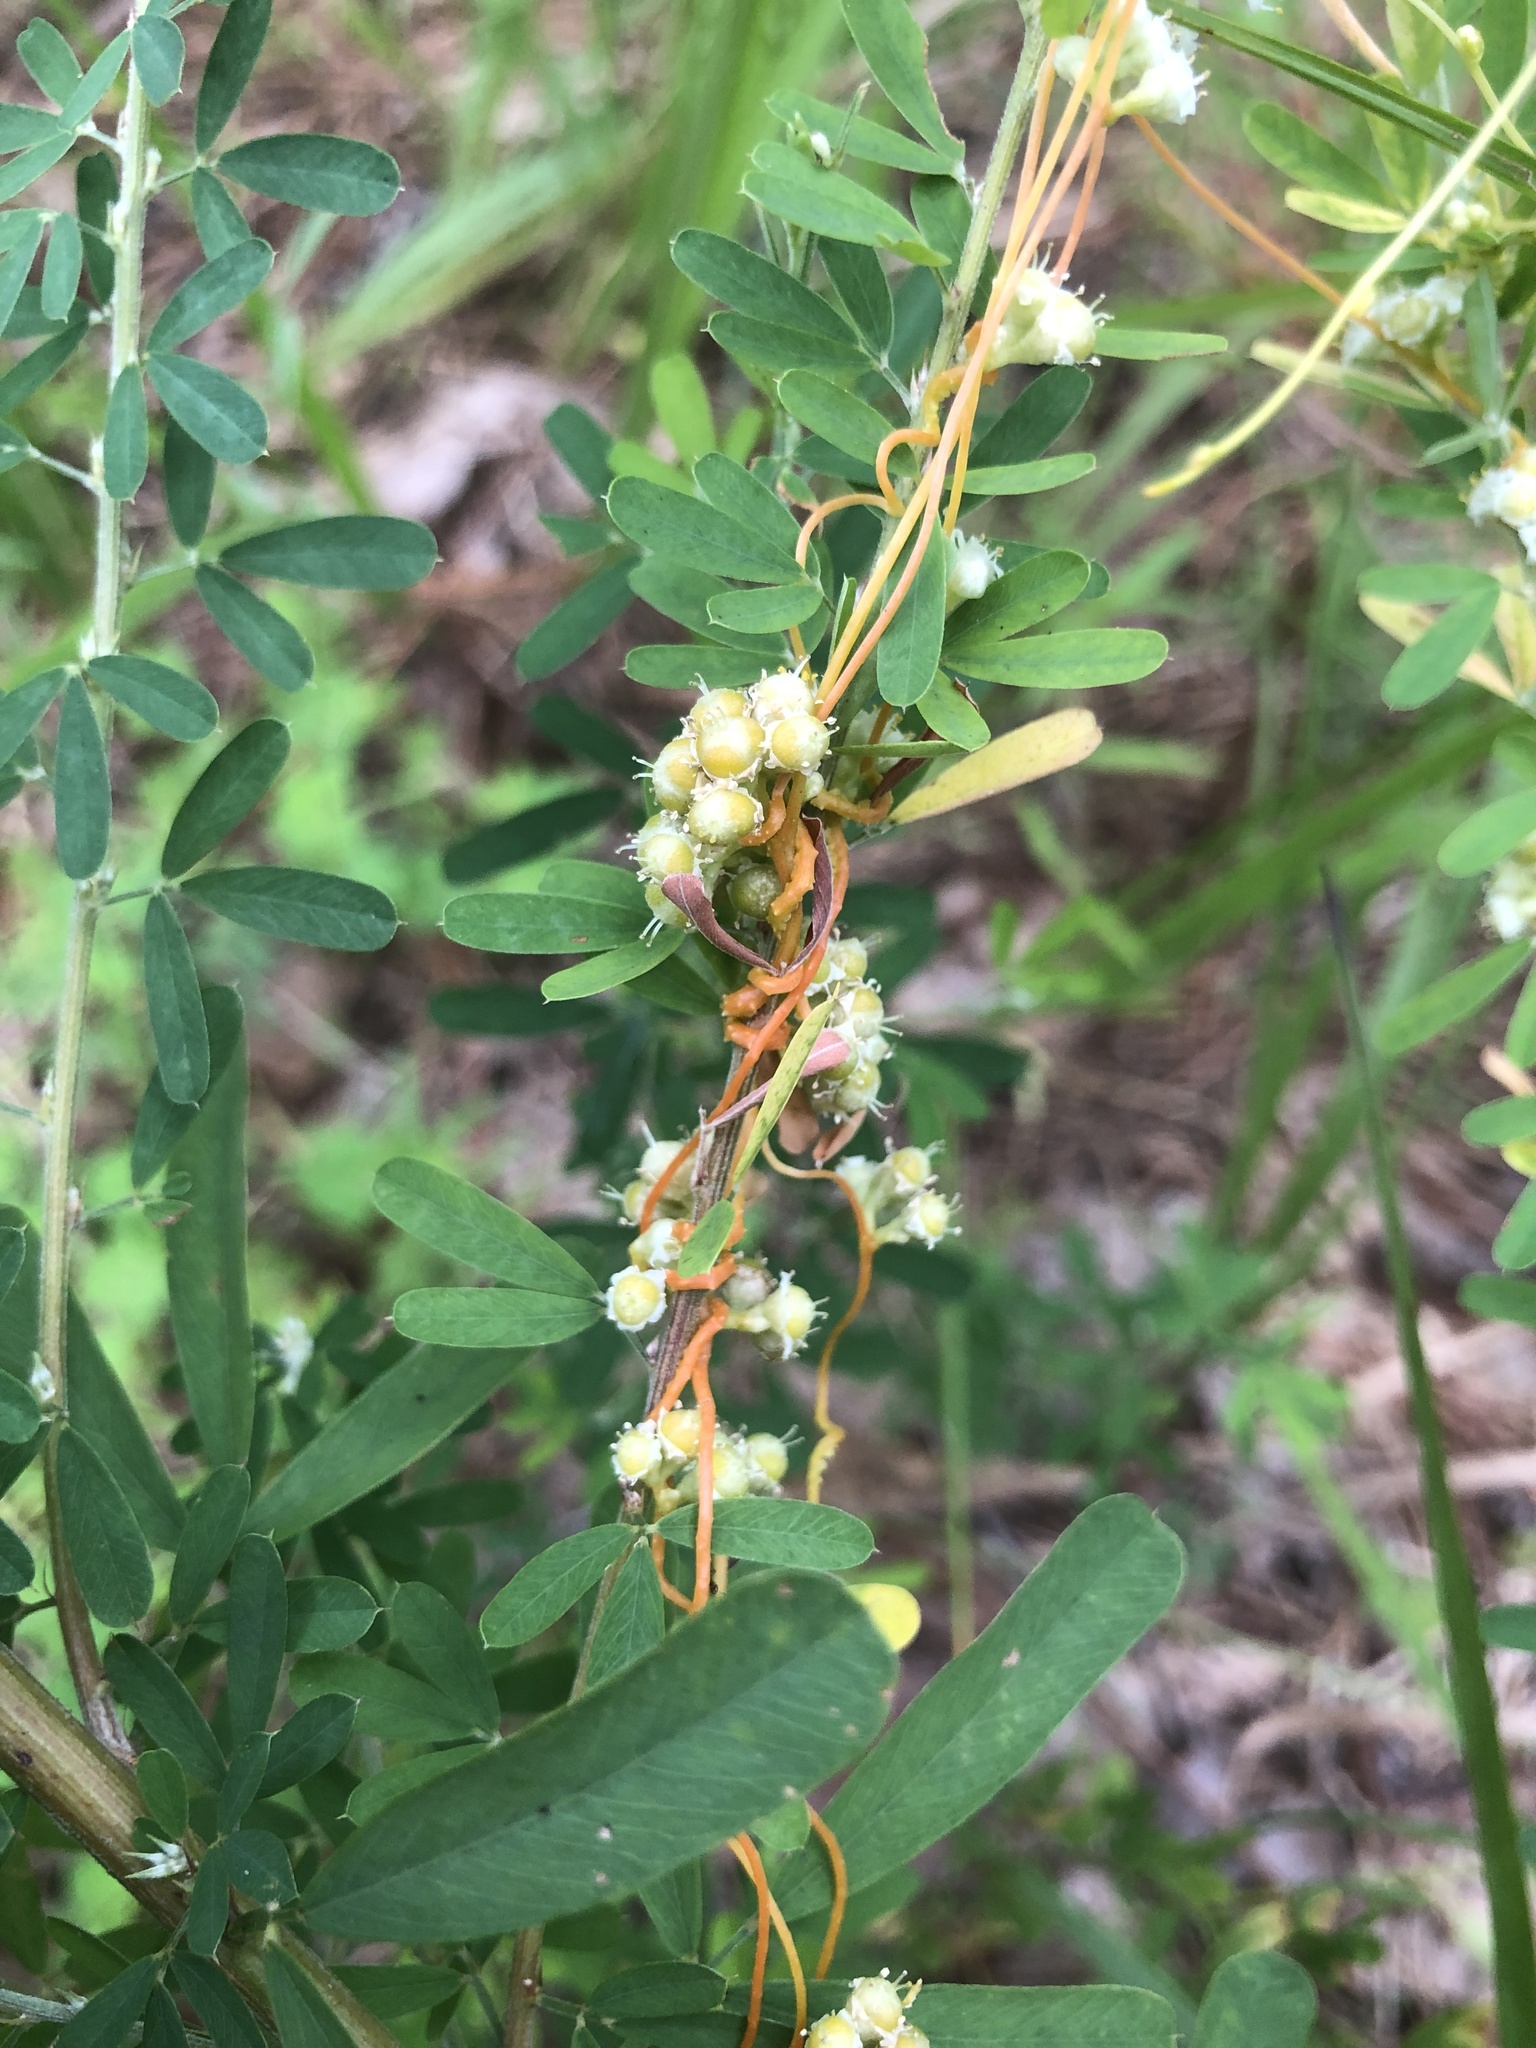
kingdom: Plantae
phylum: Tracheophyta
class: Magnoliopsida
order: Solanales
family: Convolvulaceae
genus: Cuscuta
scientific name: Cuscuta campestris
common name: Yellow dodder
